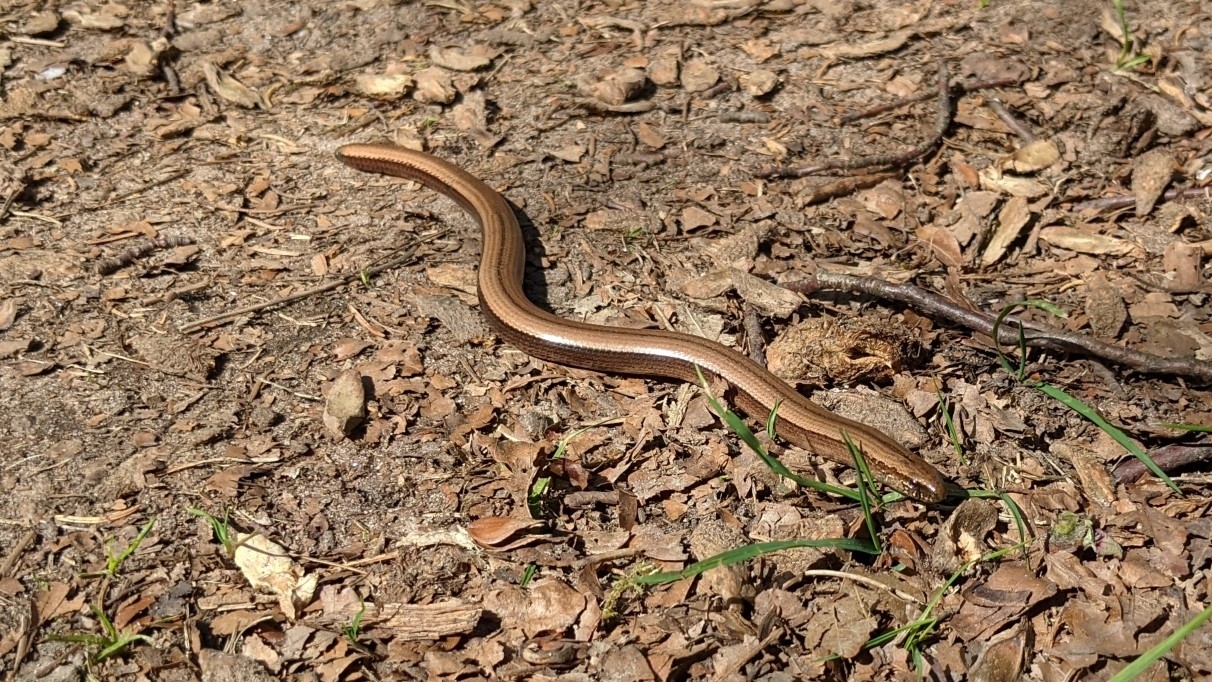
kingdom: Animalia
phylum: Chordata
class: Squamata
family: Anguidae
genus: Anguis
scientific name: Anguis fragilis
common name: Slow worm
